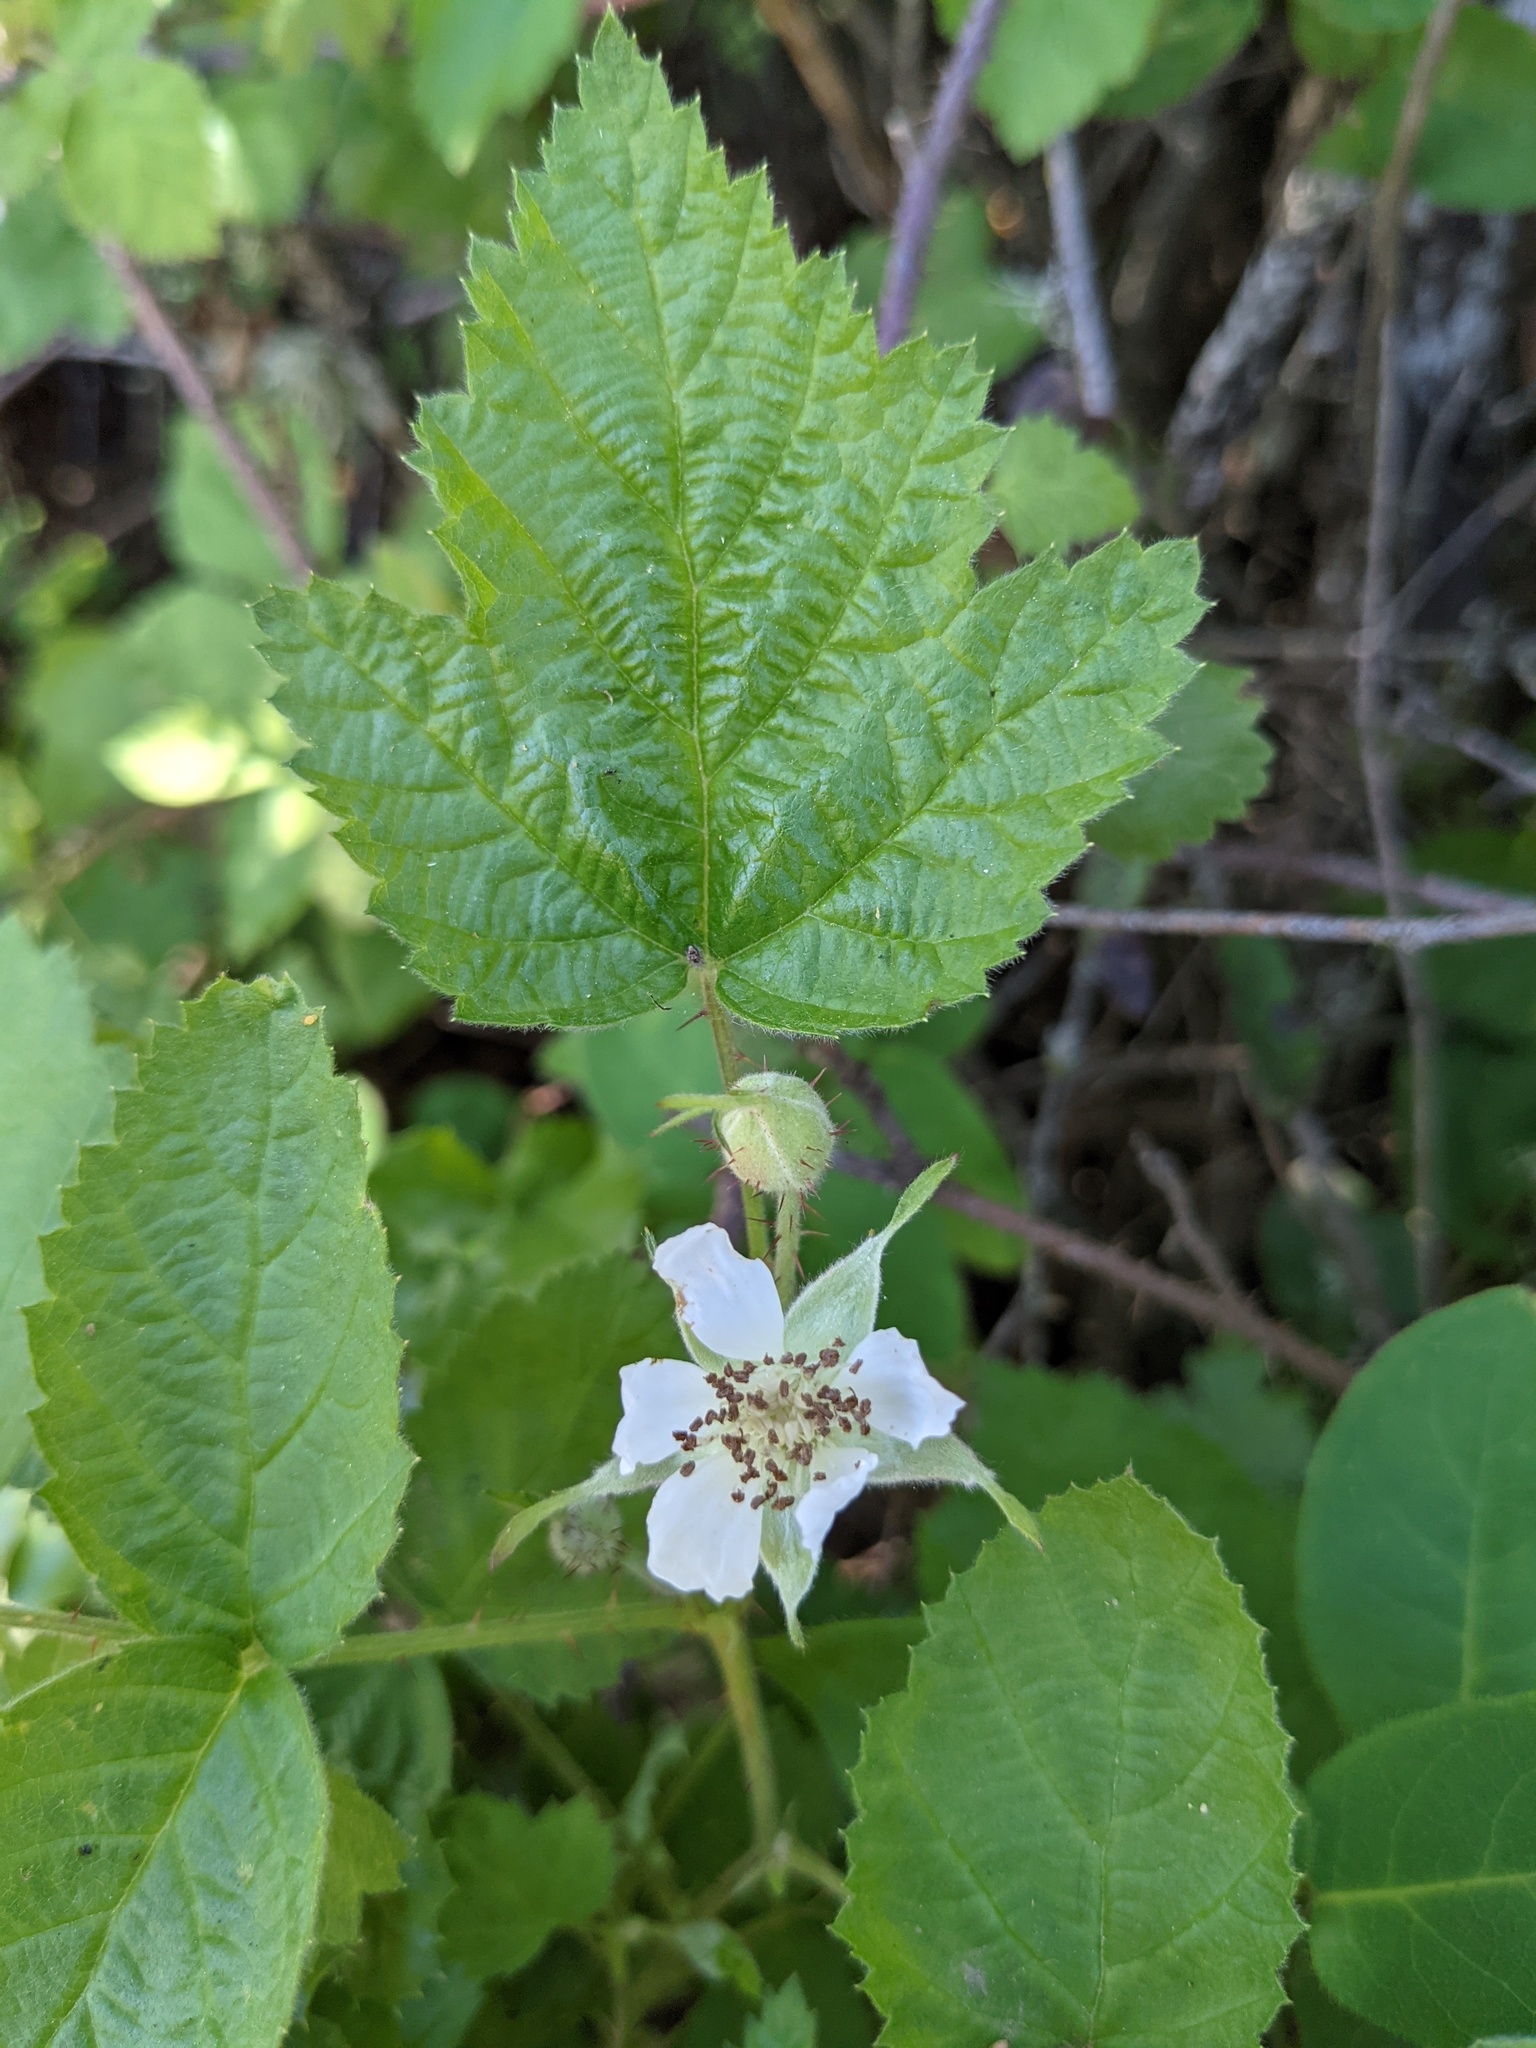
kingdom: Plantae
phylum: Tracheophyta
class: Magnoliopsida
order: Rosales
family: Rosaceae
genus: Rubus
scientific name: Rubus ursinus
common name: Pacific blackberry
